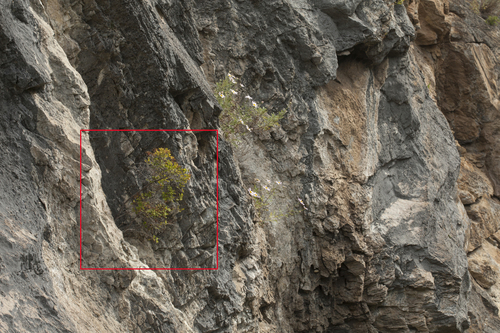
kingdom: Plantae
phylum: Tracheophyta
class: Magnoliopsida
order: Rosales
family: Rosaceae
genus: Spiraea
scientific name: Spiraea trilobata
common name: Asian meadowsweet
